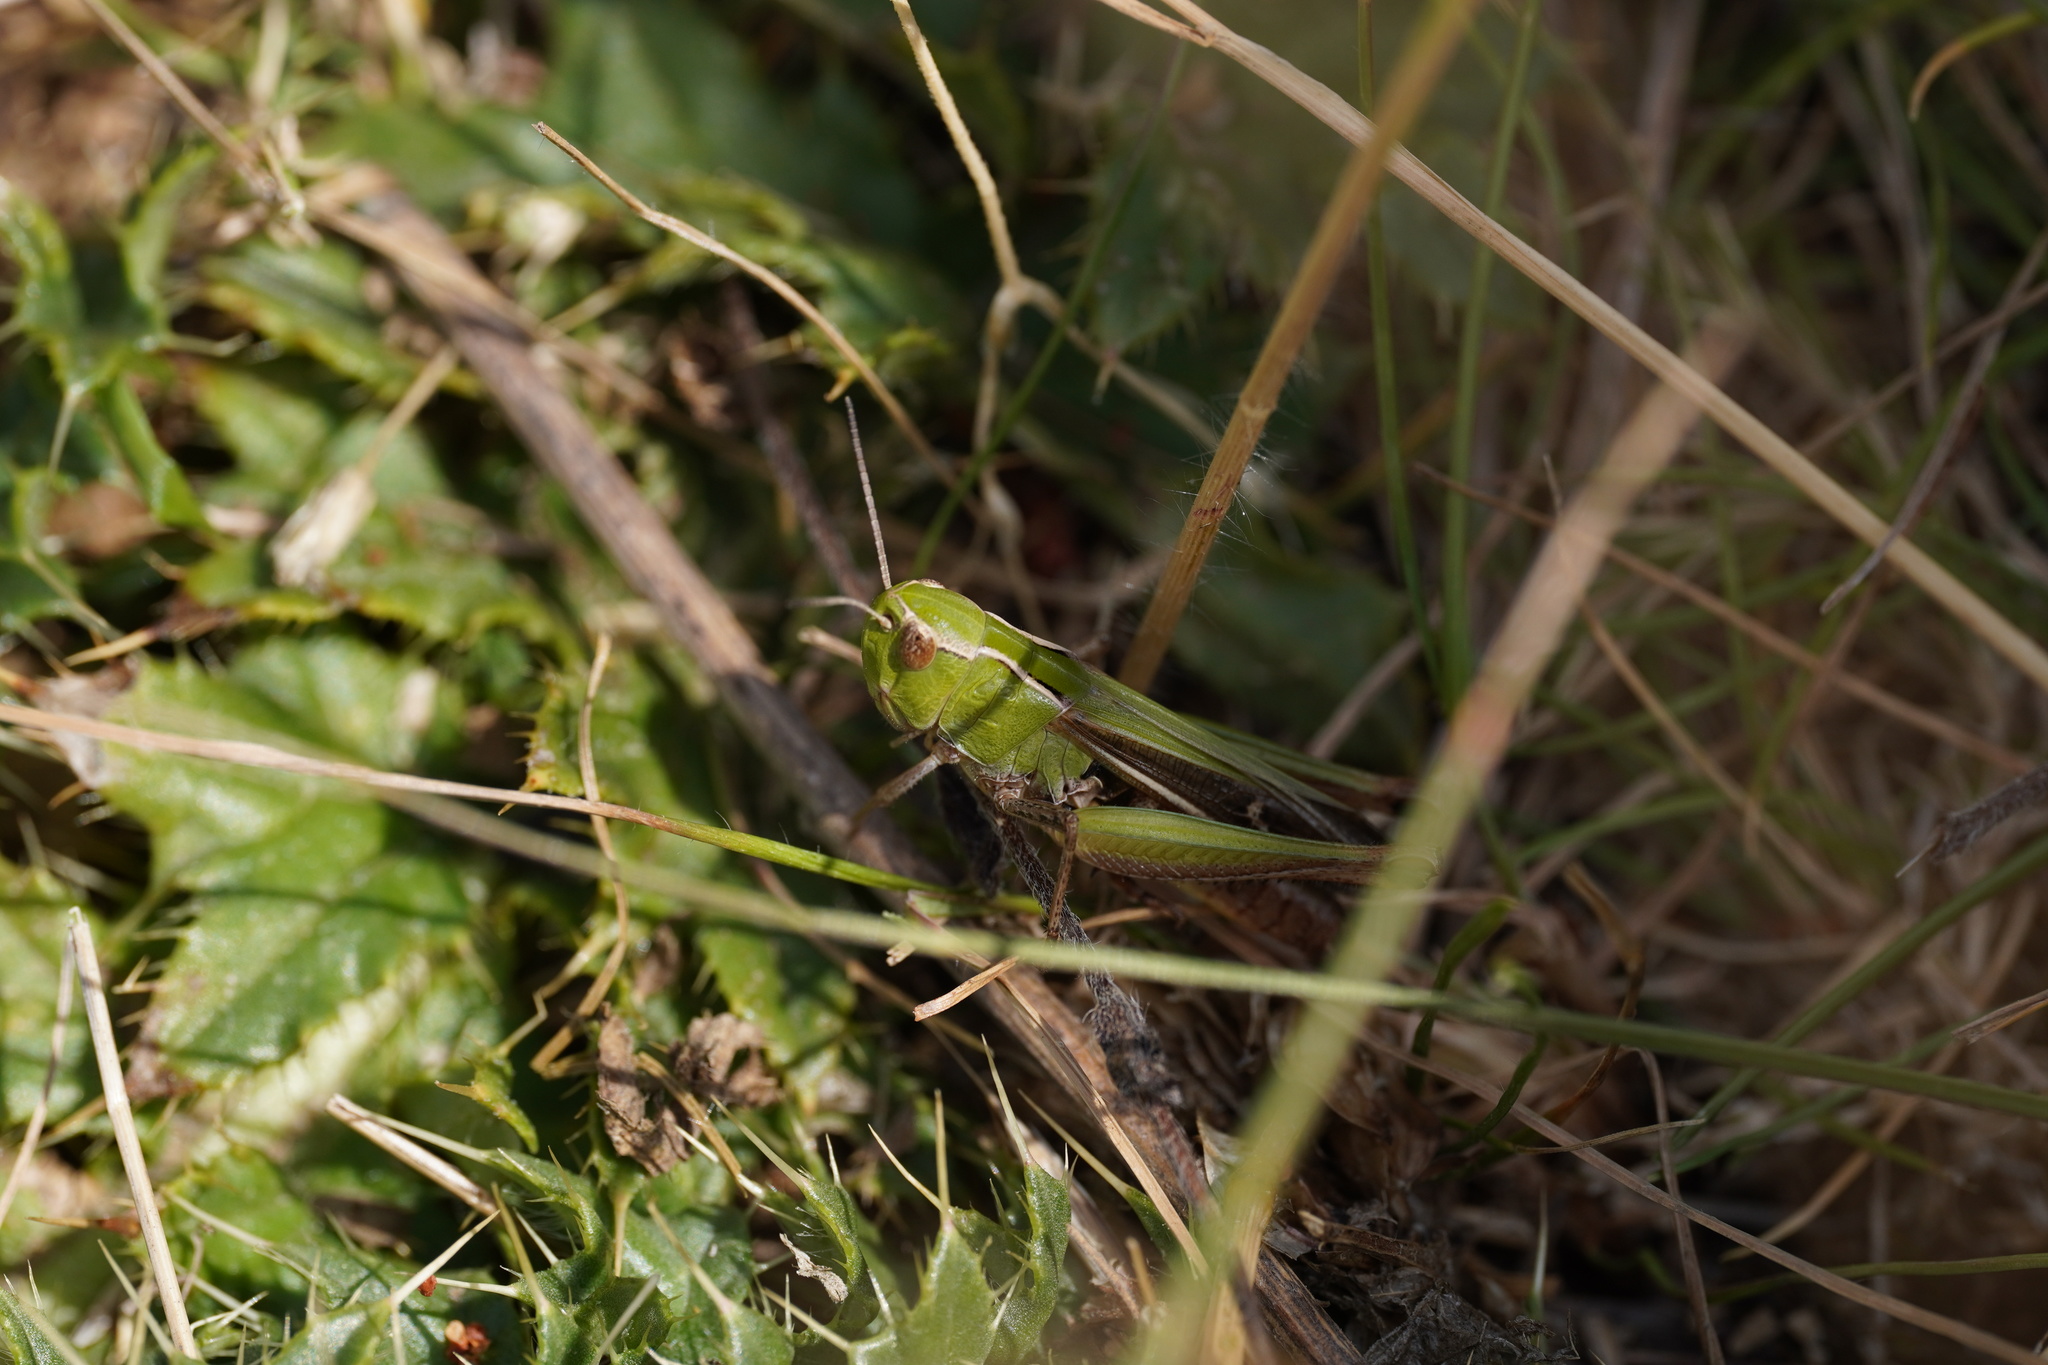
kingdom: Animalia
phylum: Arthropoda
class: Insecta
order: Orthoptera
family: Acrididae
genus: Stenobothrus
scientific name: Stenobothrus lineatus
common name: Stripe-winged grasshopper
